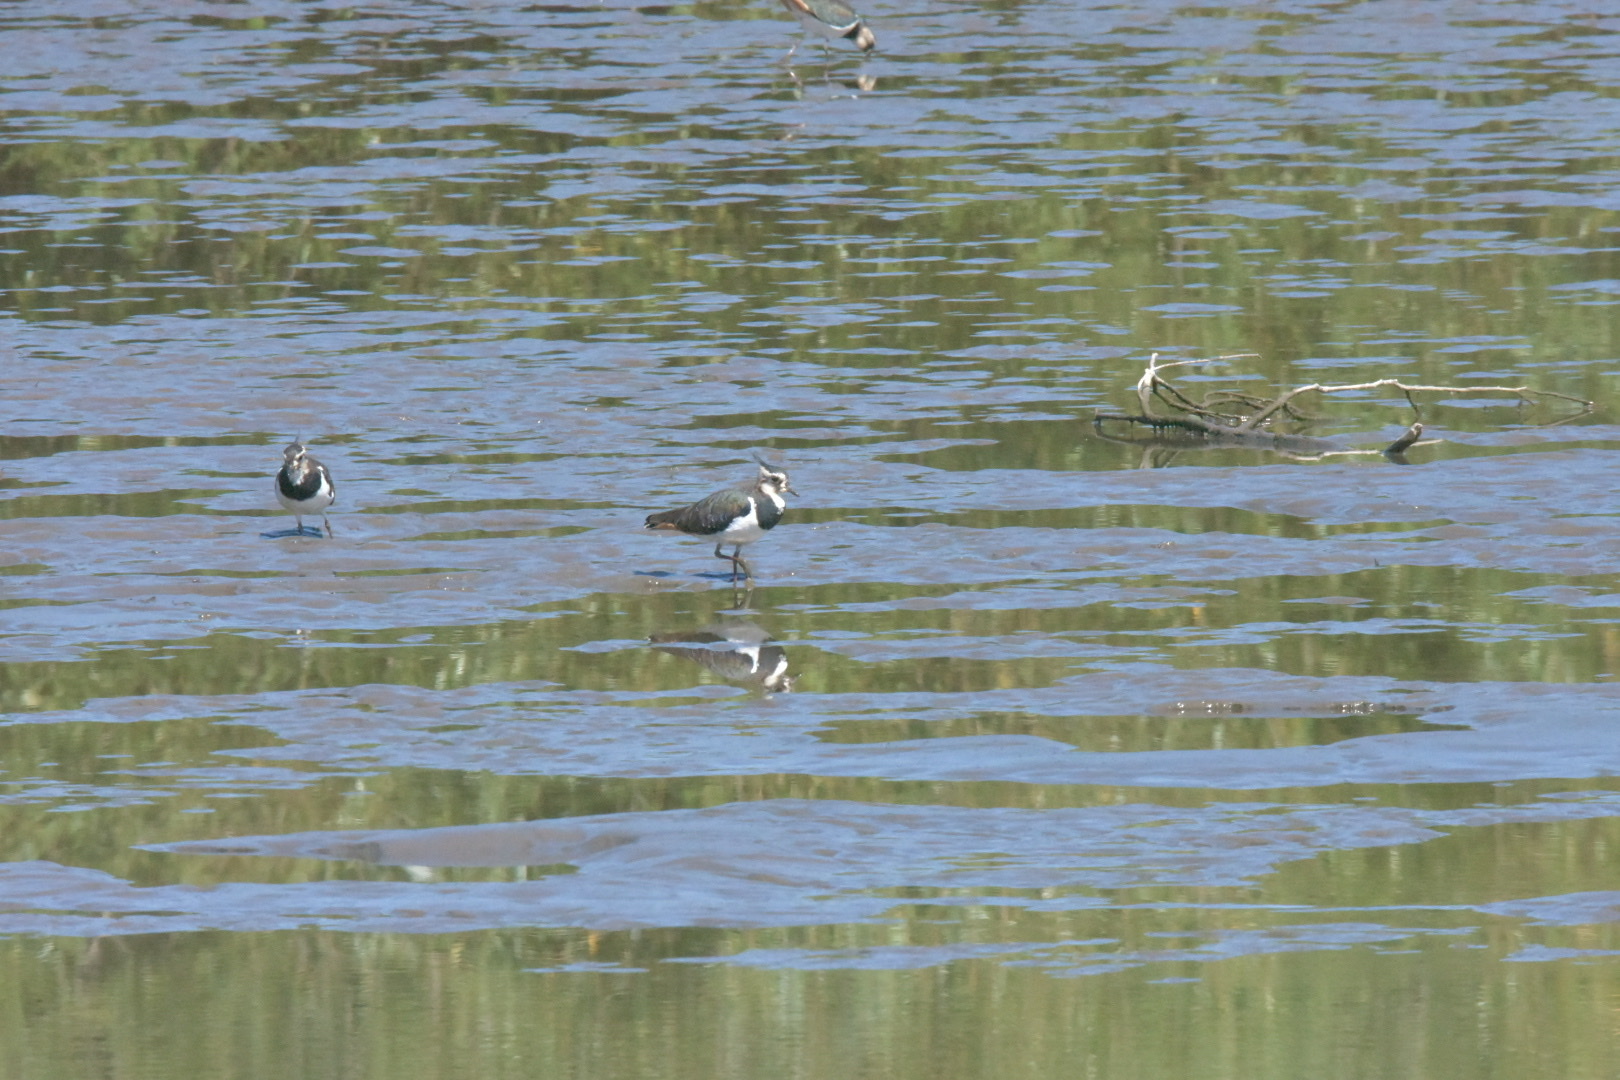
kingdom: Animalia
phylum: Chordata
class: Aves
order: Charadriiformes
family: Charadriidae
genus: Vanellus
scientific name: Vanellus vanellus
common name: Northern lapwing
